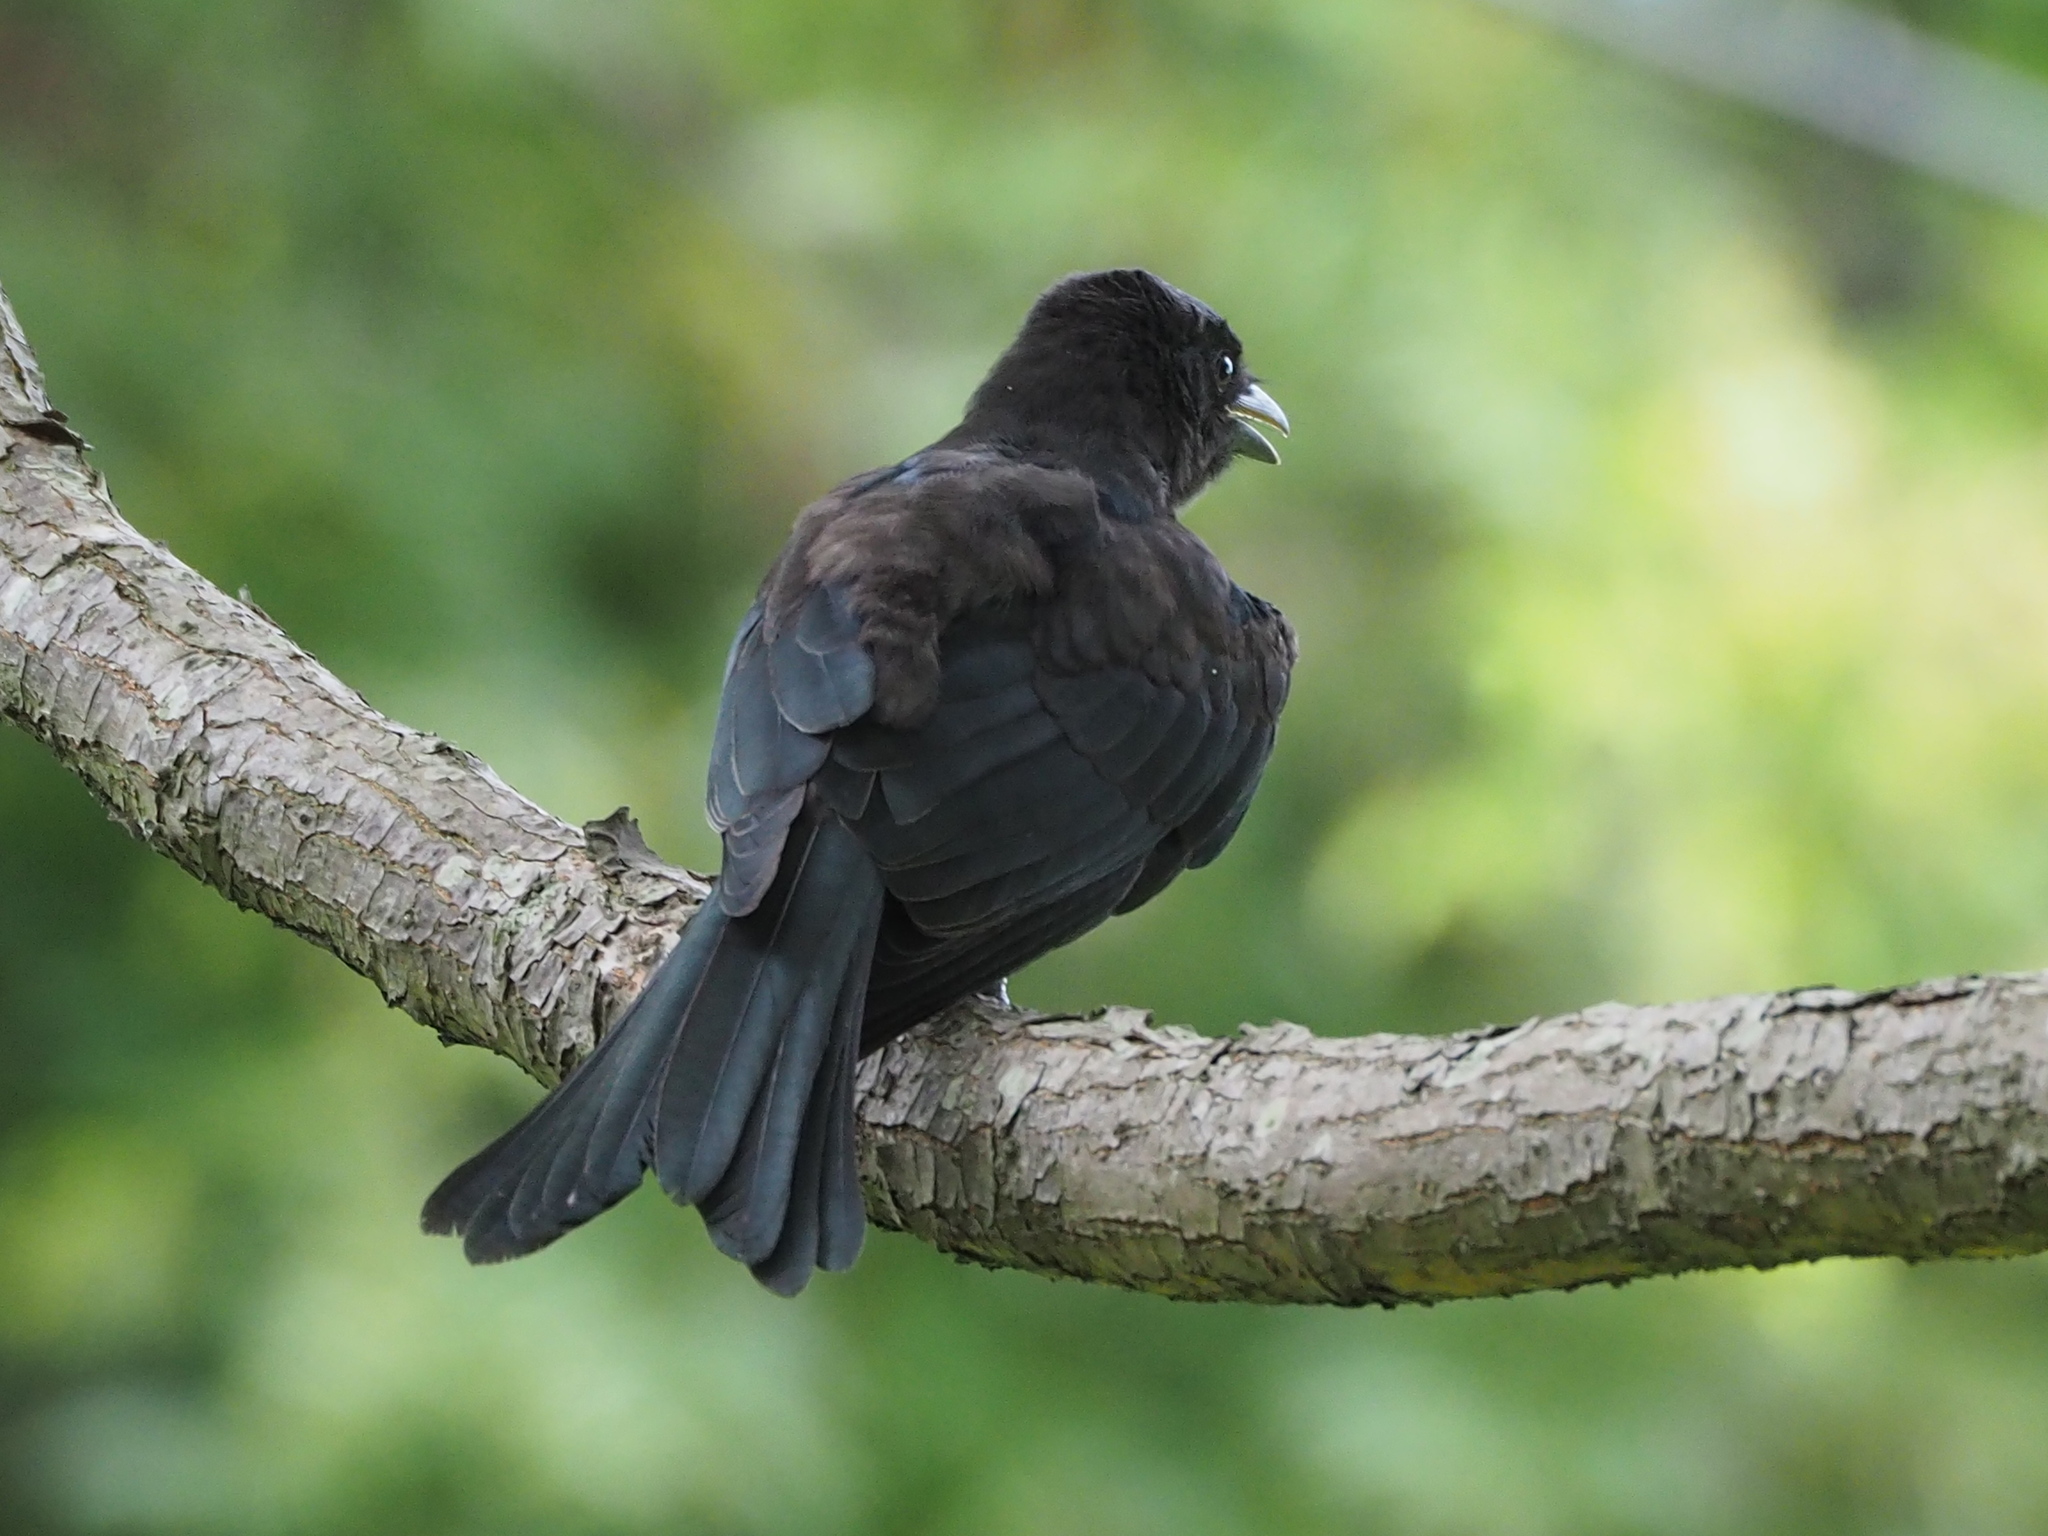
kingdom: Animalia
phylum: Chordata
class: Aves
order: Passeriformes
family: Dicruridae
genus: Dicrurus
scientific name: Dicrurus macrocercus
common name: Black drongo
